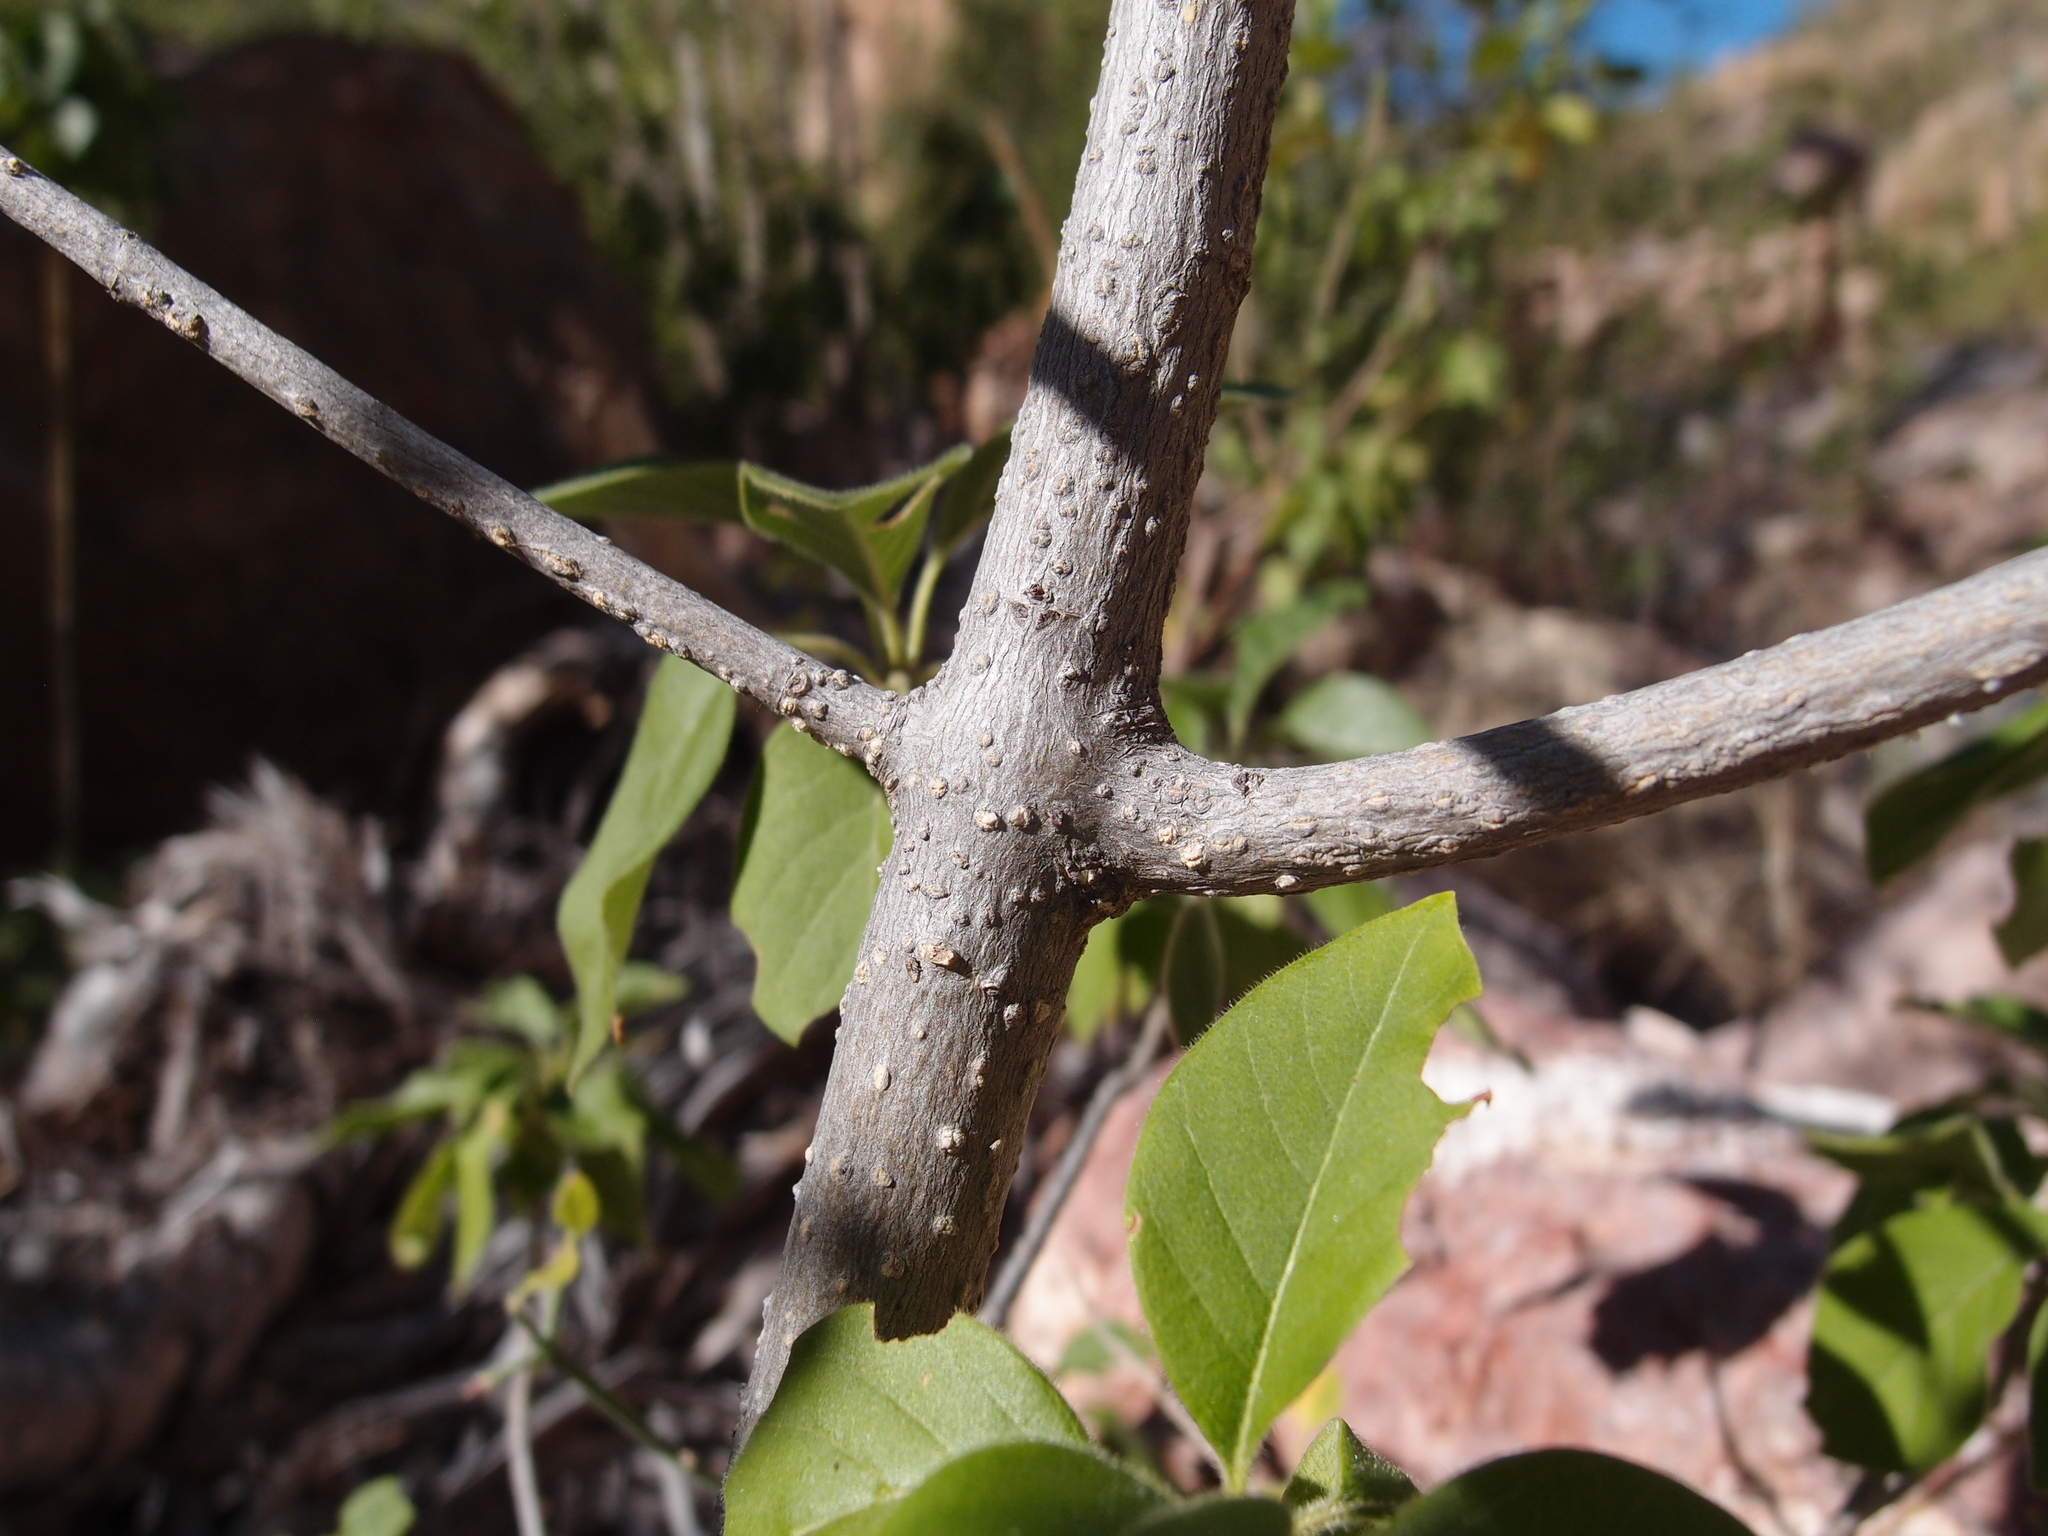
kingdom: Plantae
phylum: Tracheophyta
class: Magnoliopsida
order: Gentianales
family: Rubiaceae
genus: Hintonia
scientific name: Hintonia latiflora
